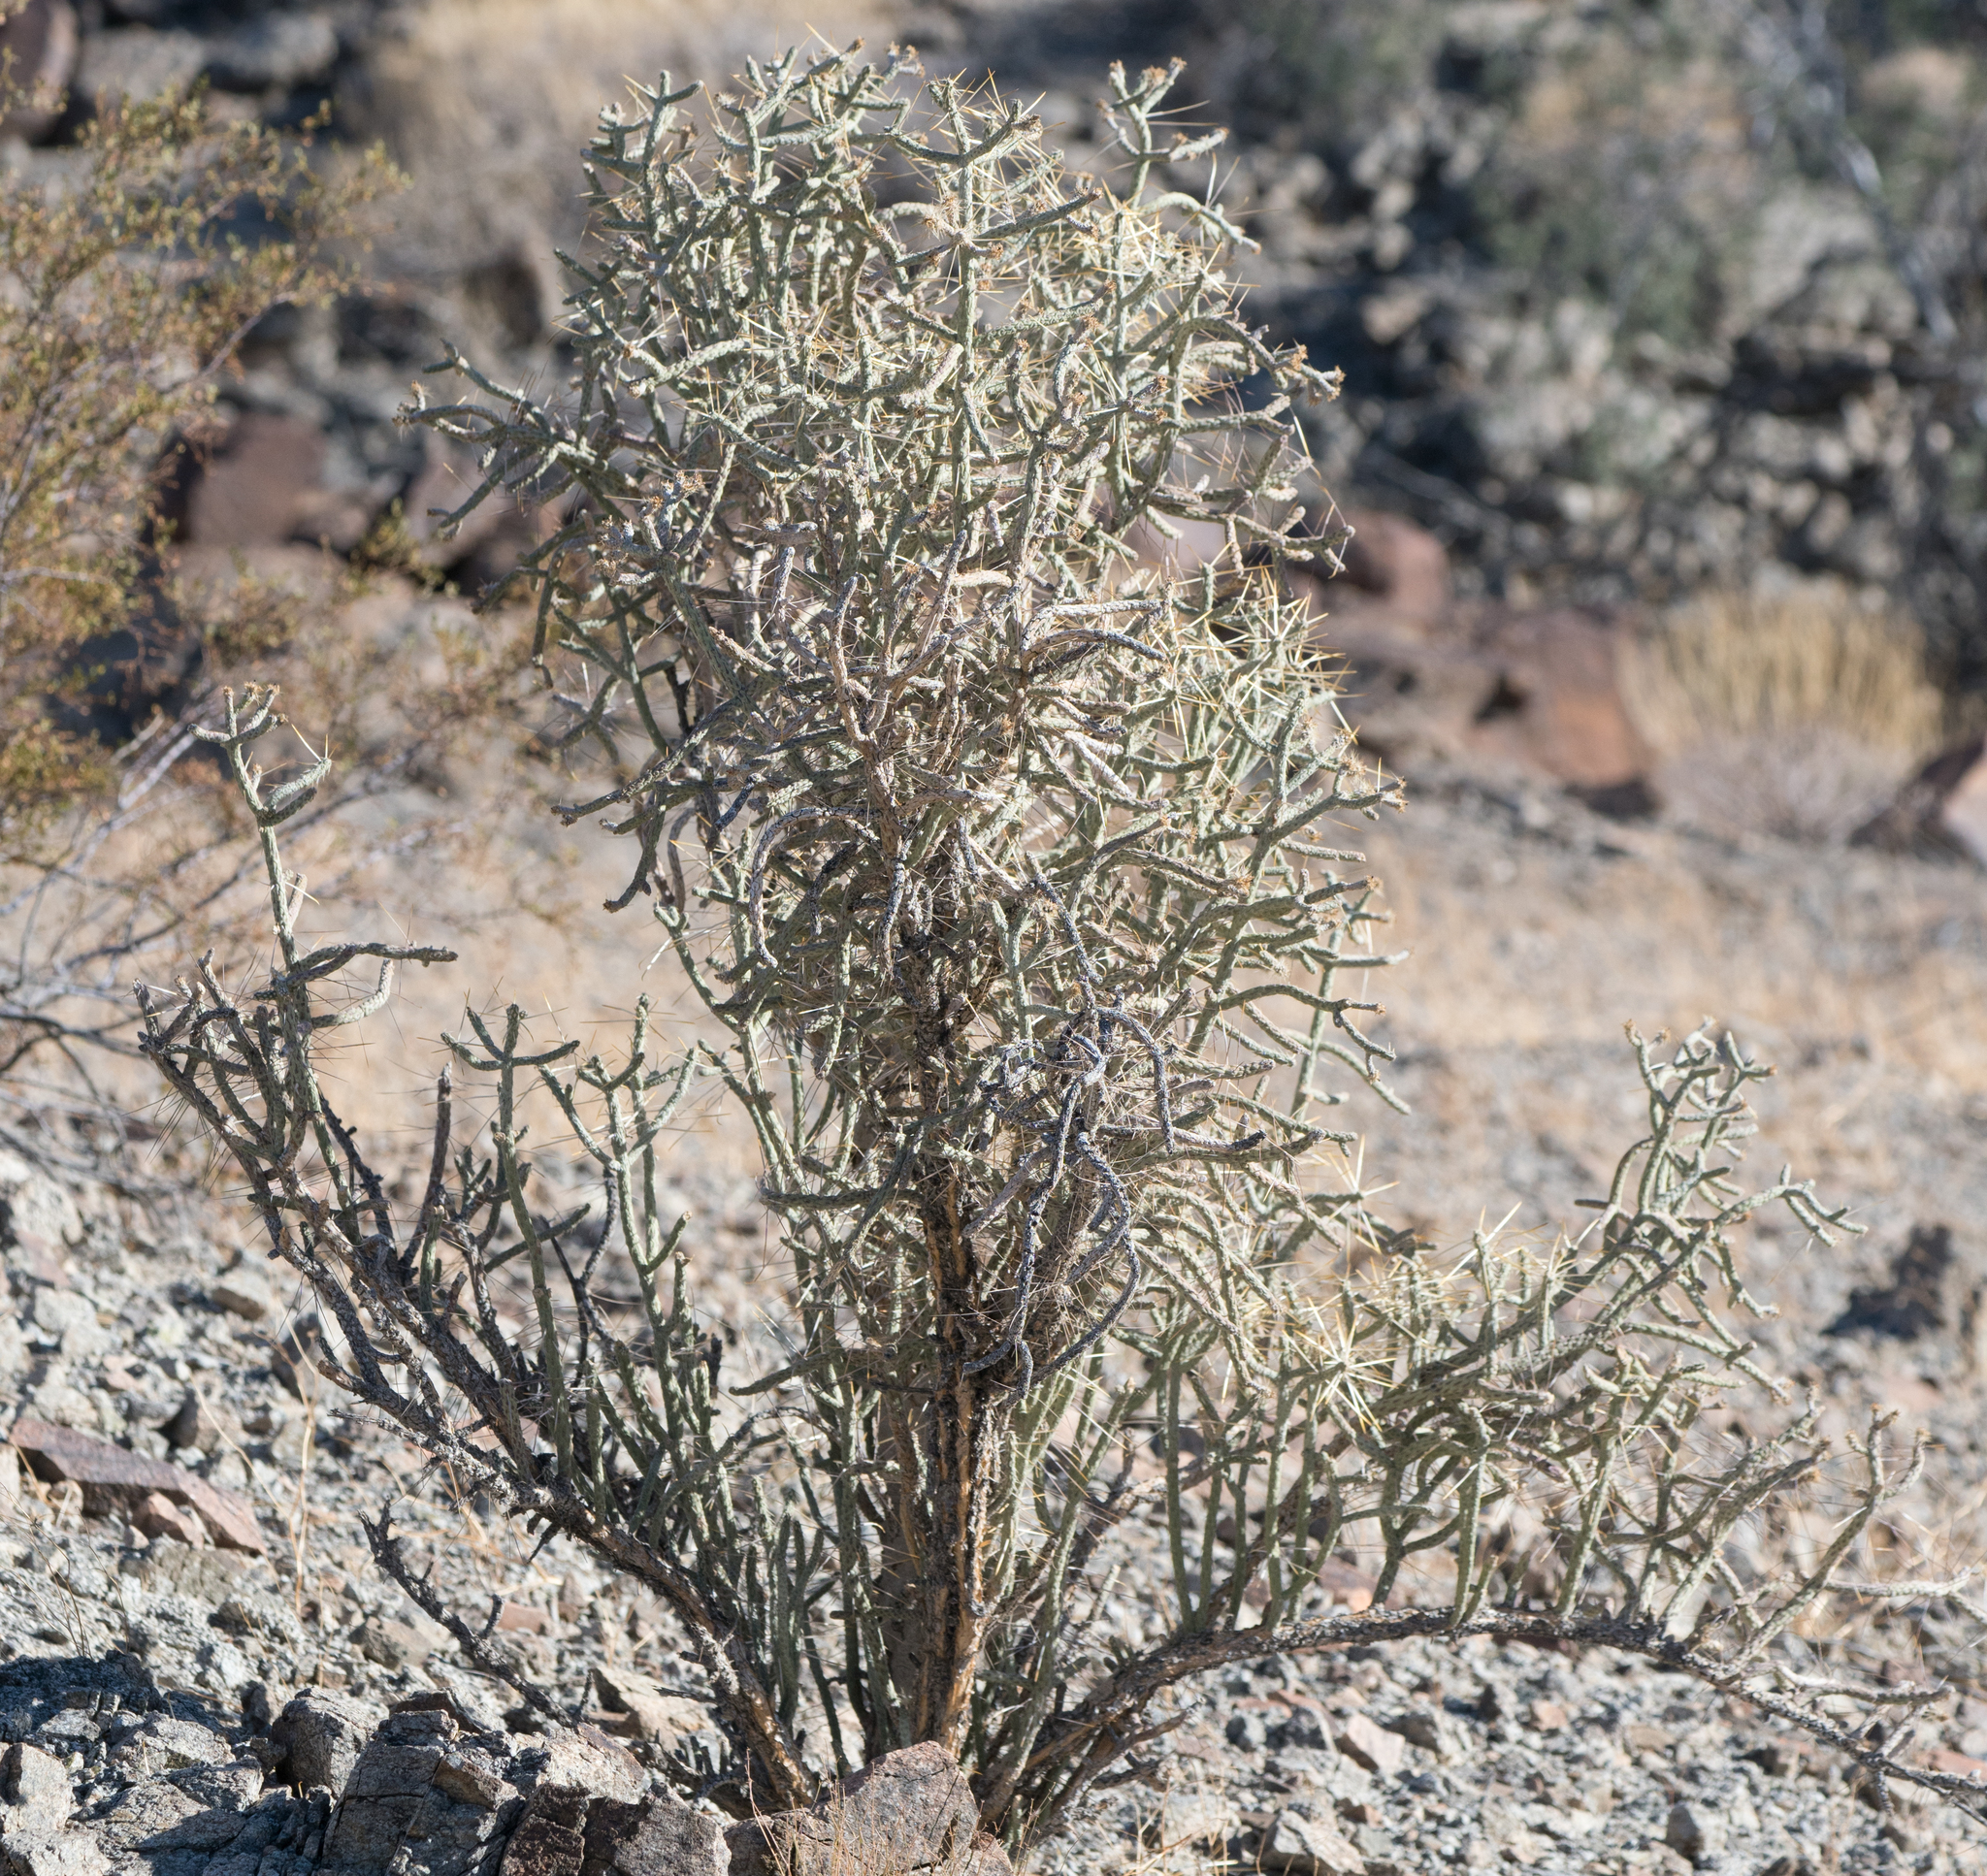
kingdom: Plantae
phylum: Tracheophyta
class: Magnoliopsida
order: Caryophyllales
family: Cactaceae
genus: Cylindropuntia
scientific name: Cylindropuntia ramosissima
